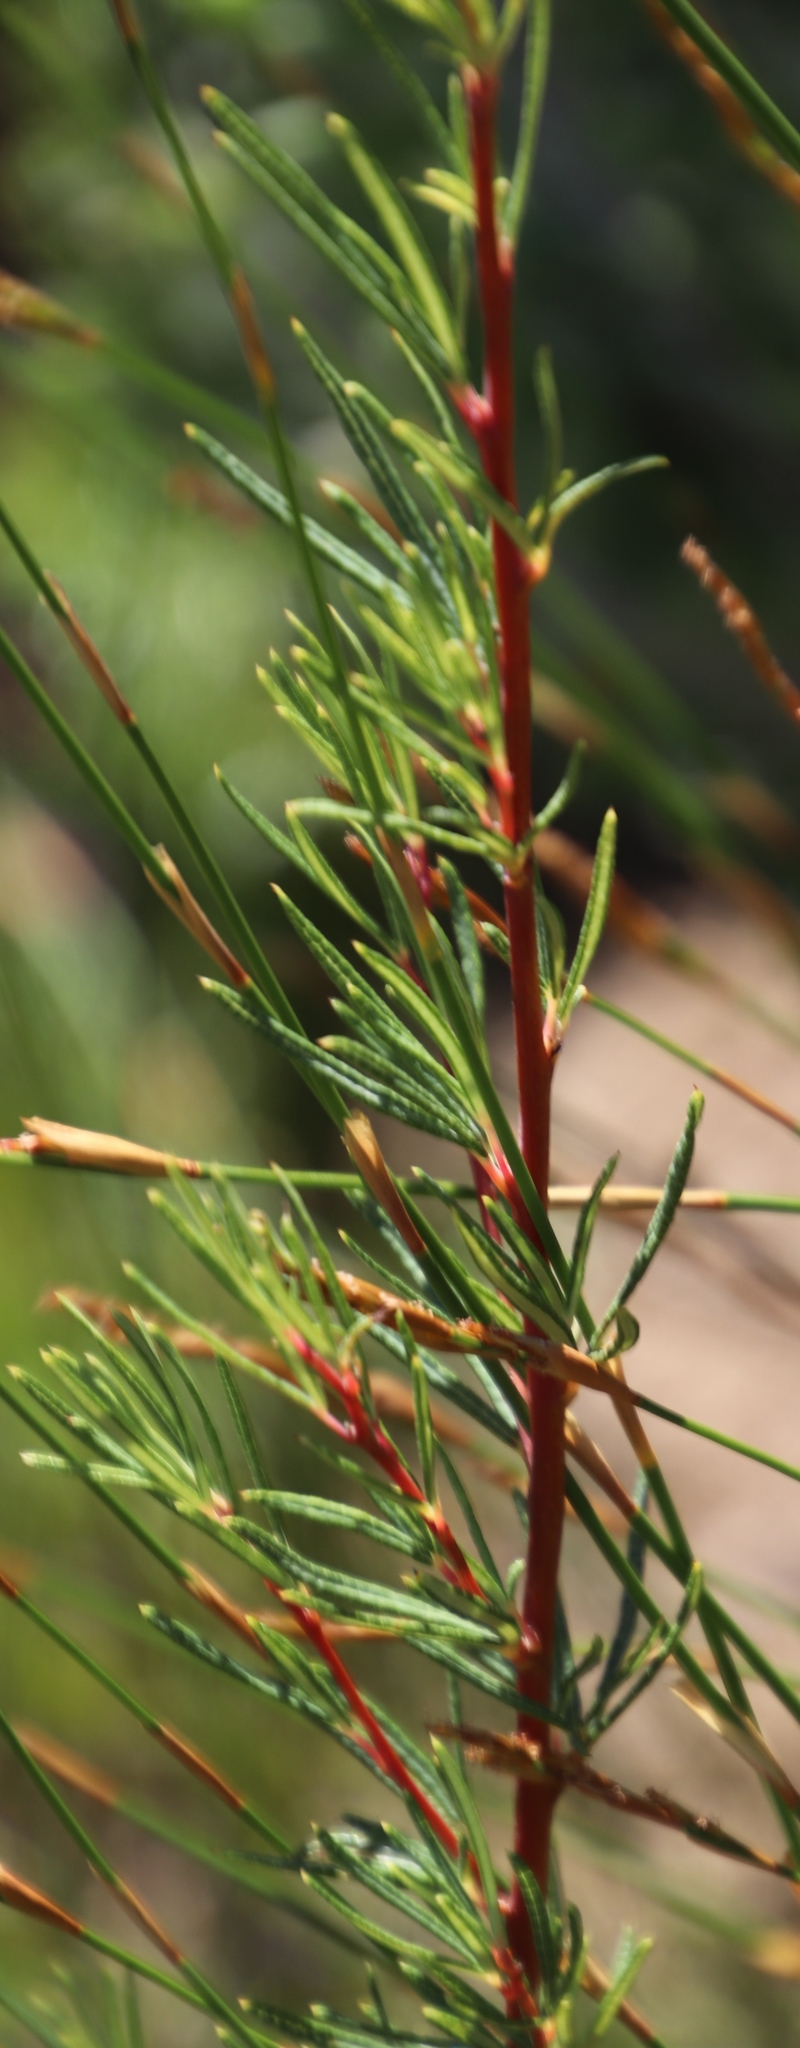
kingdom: Plantae
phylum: Tracheophyta
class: Magnoliopsida
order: Sapindales
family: Anacardiaceae
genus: Searsia
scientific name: Searsia rosmarinifolia
